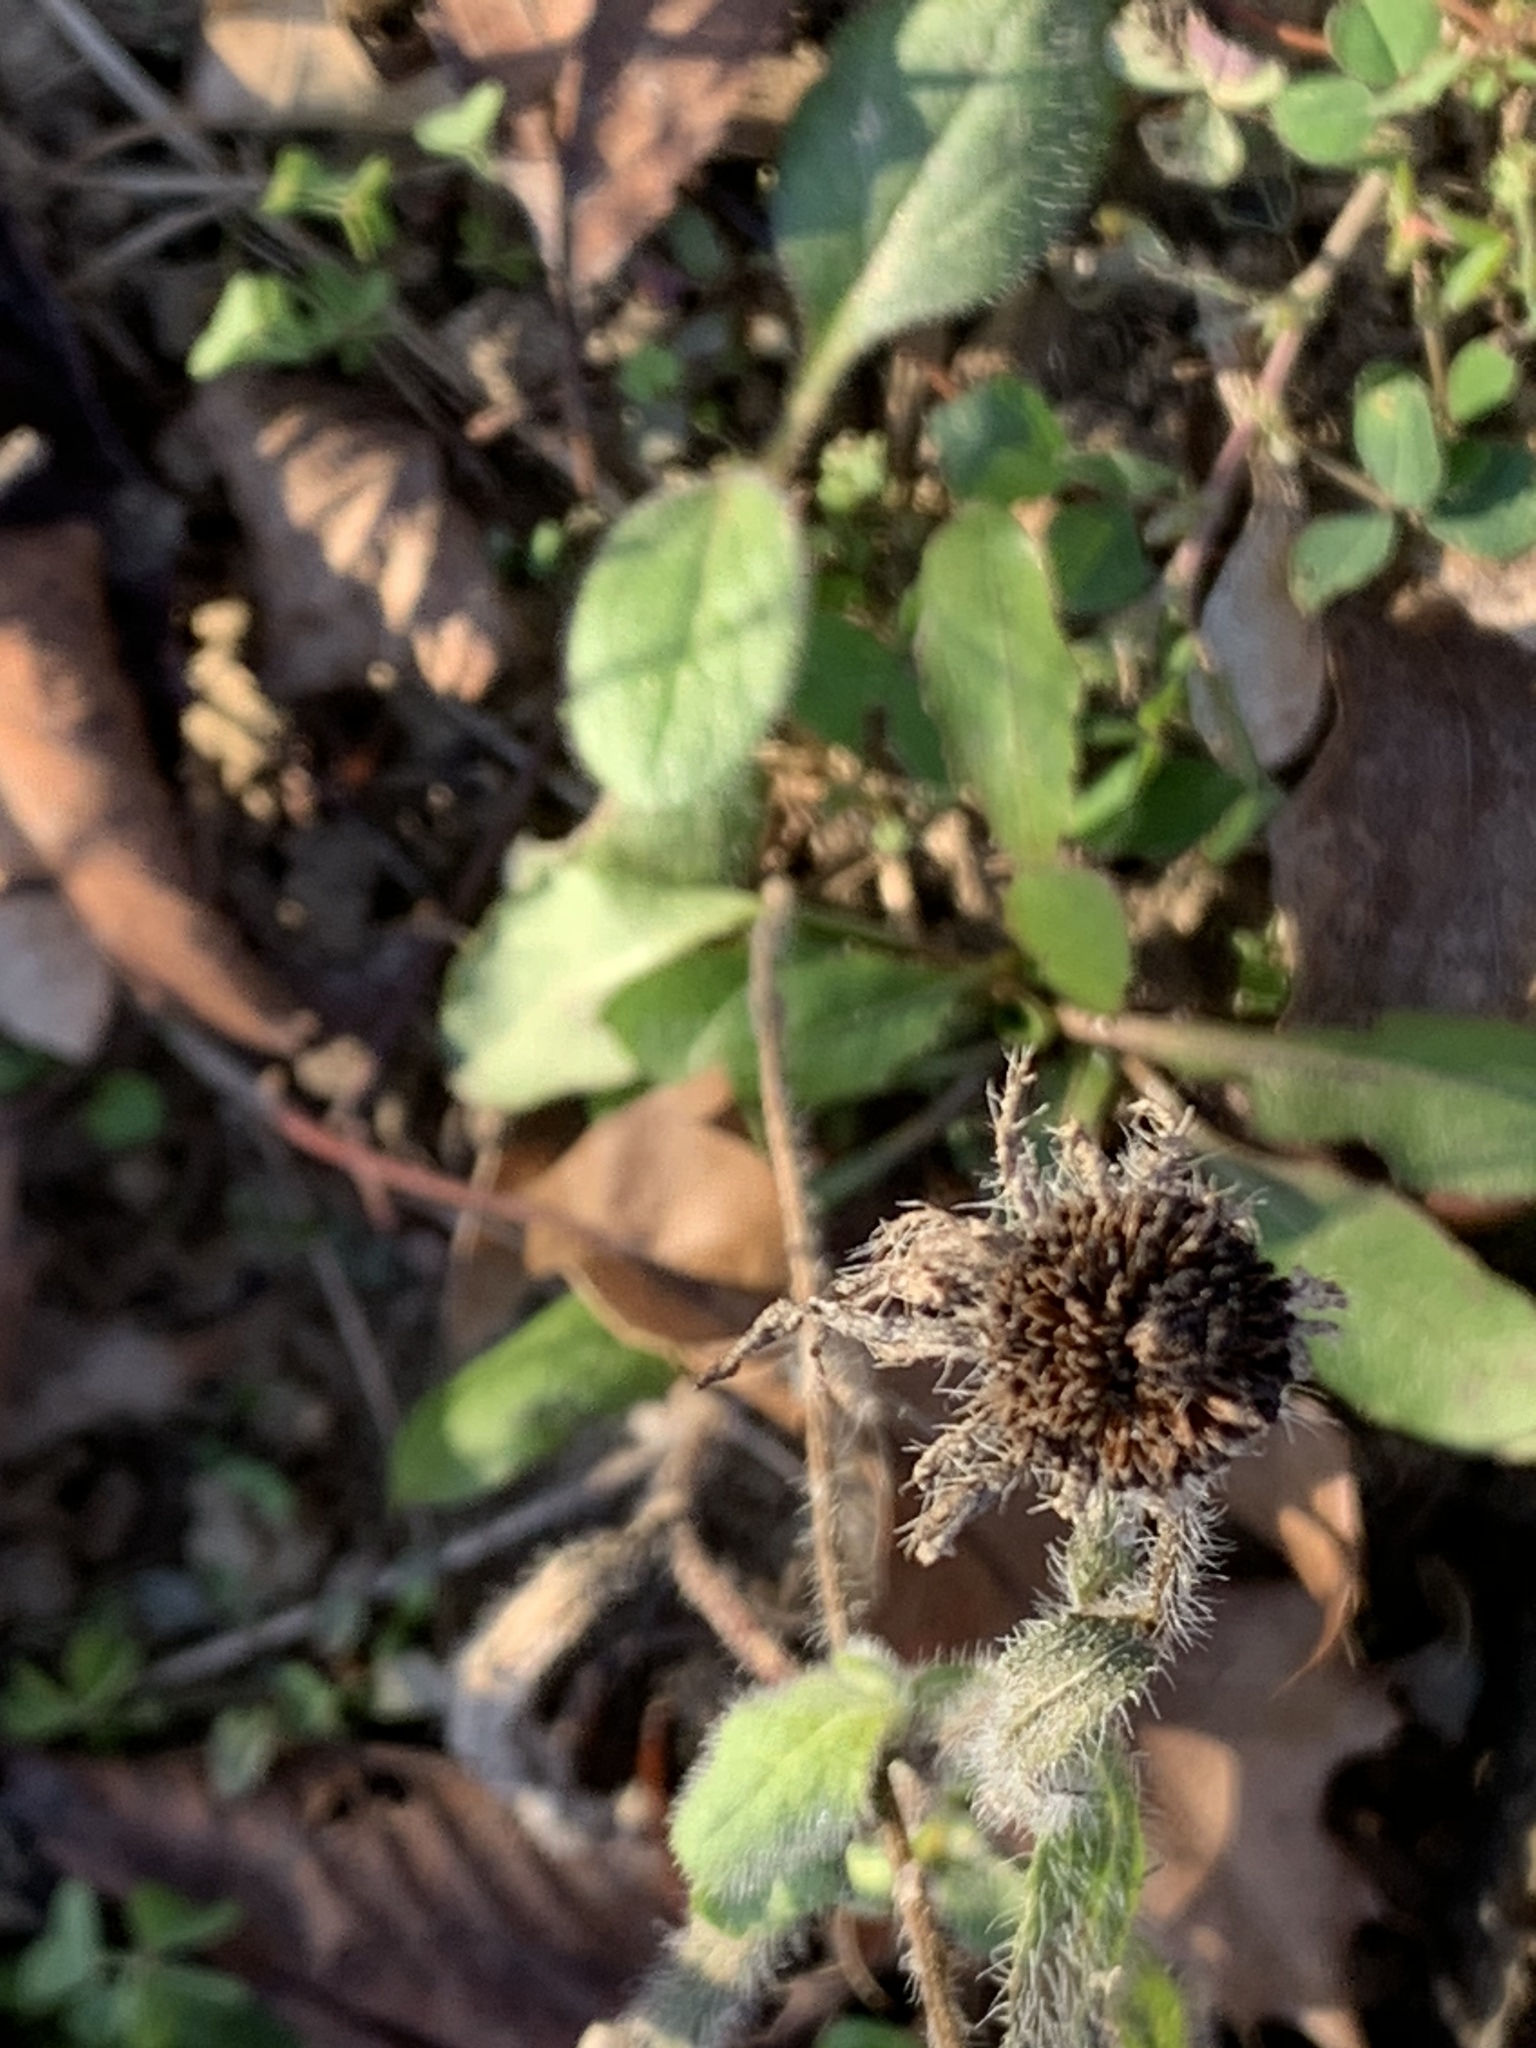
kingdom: Plantae
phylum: Tracheophyta
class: Magnoliopsida
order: Asterales
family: Asteraceae
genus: Rudbeckia
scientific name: Rudbeckia hirta
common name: Black-eyed-susan
